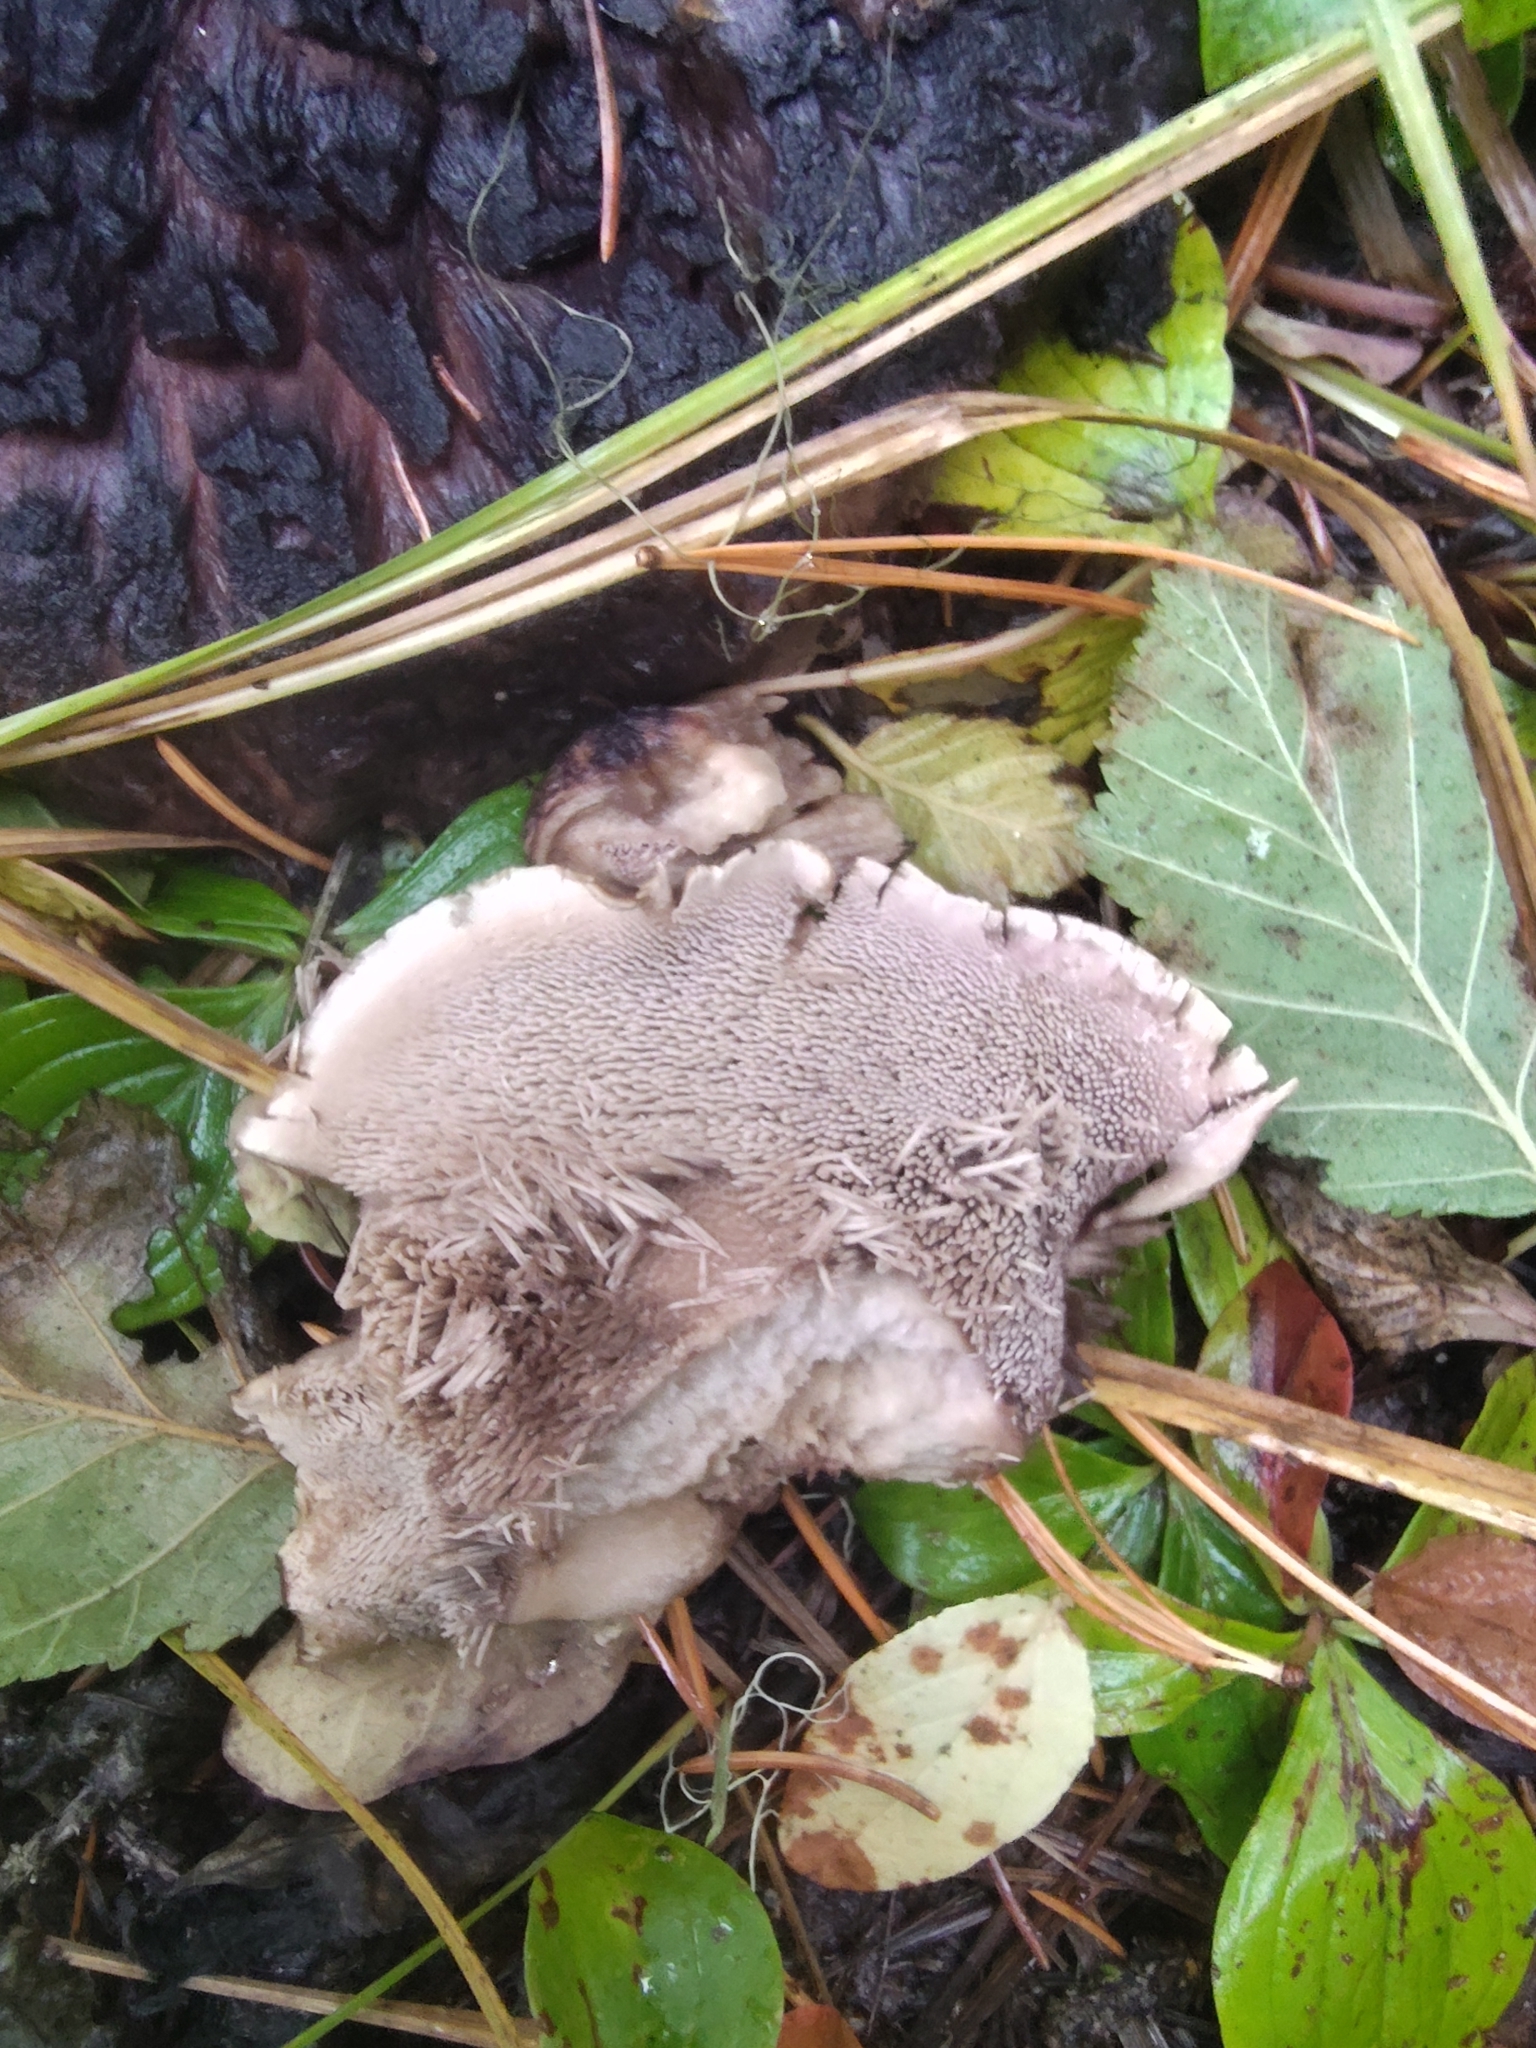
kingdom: Fungi
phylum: Basidiomycota
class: Agaricomycetes
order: Thelephorales
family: Bankeraceae
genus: Sarcodon
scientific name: Sarcodon imbricatus
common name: Shingled hedgehog
